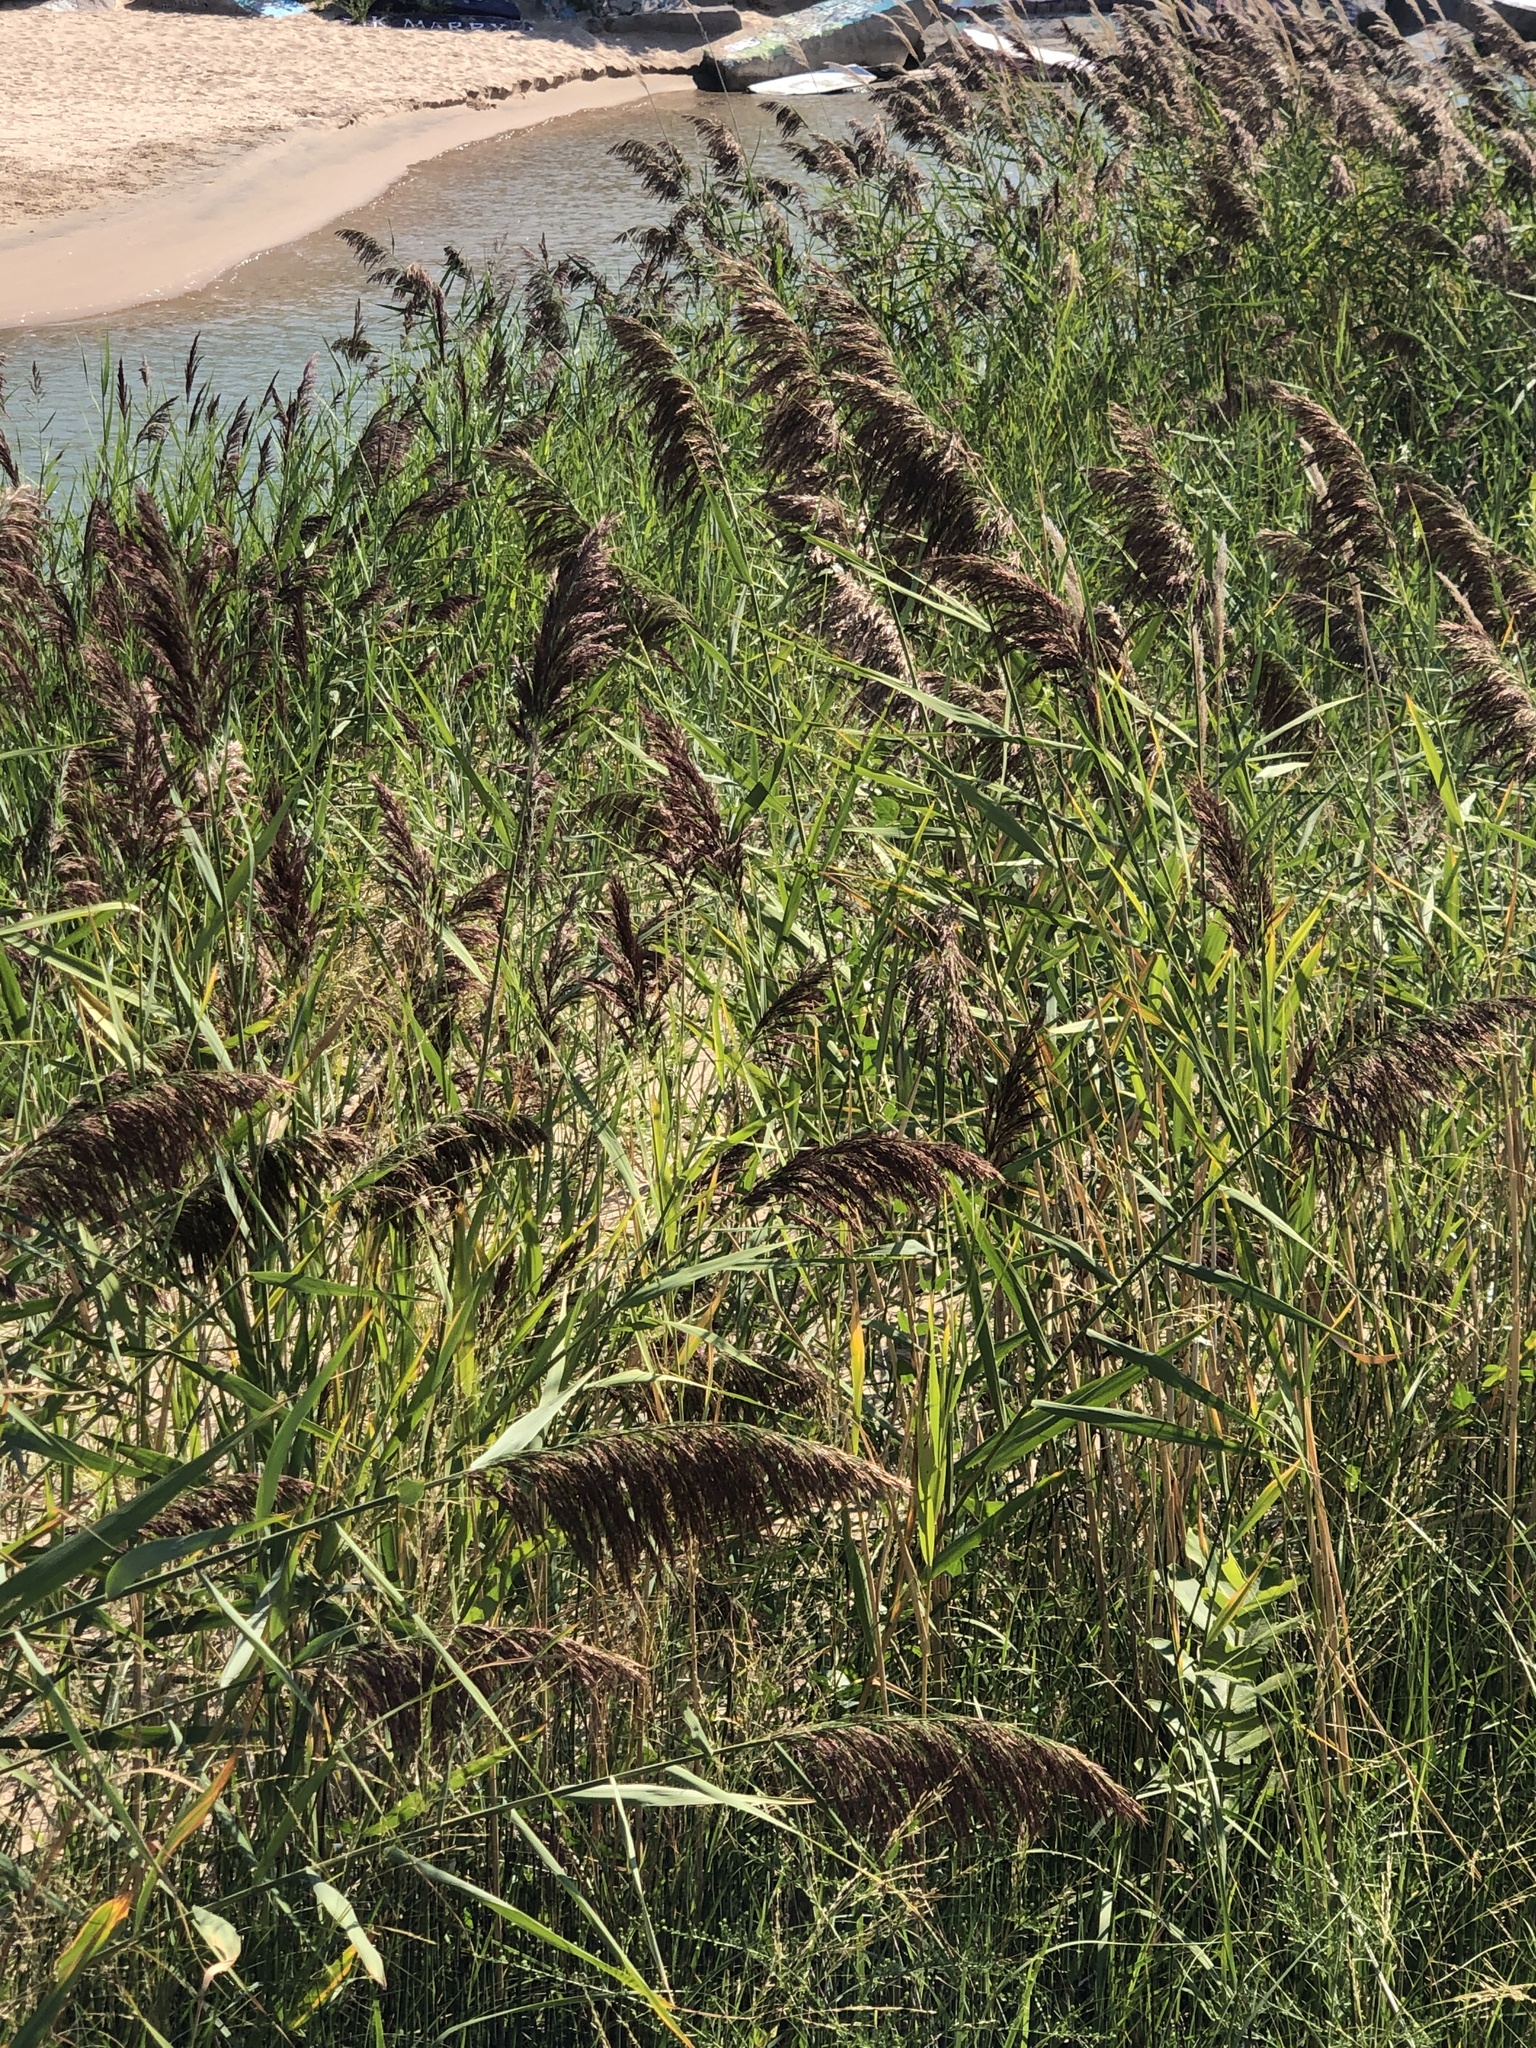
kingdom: Plantae
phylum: Tracheophyta
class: Liliopsida
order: Poales
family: Poaceae
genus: Phragmites
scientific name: Phragmites australis
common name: Common reed
